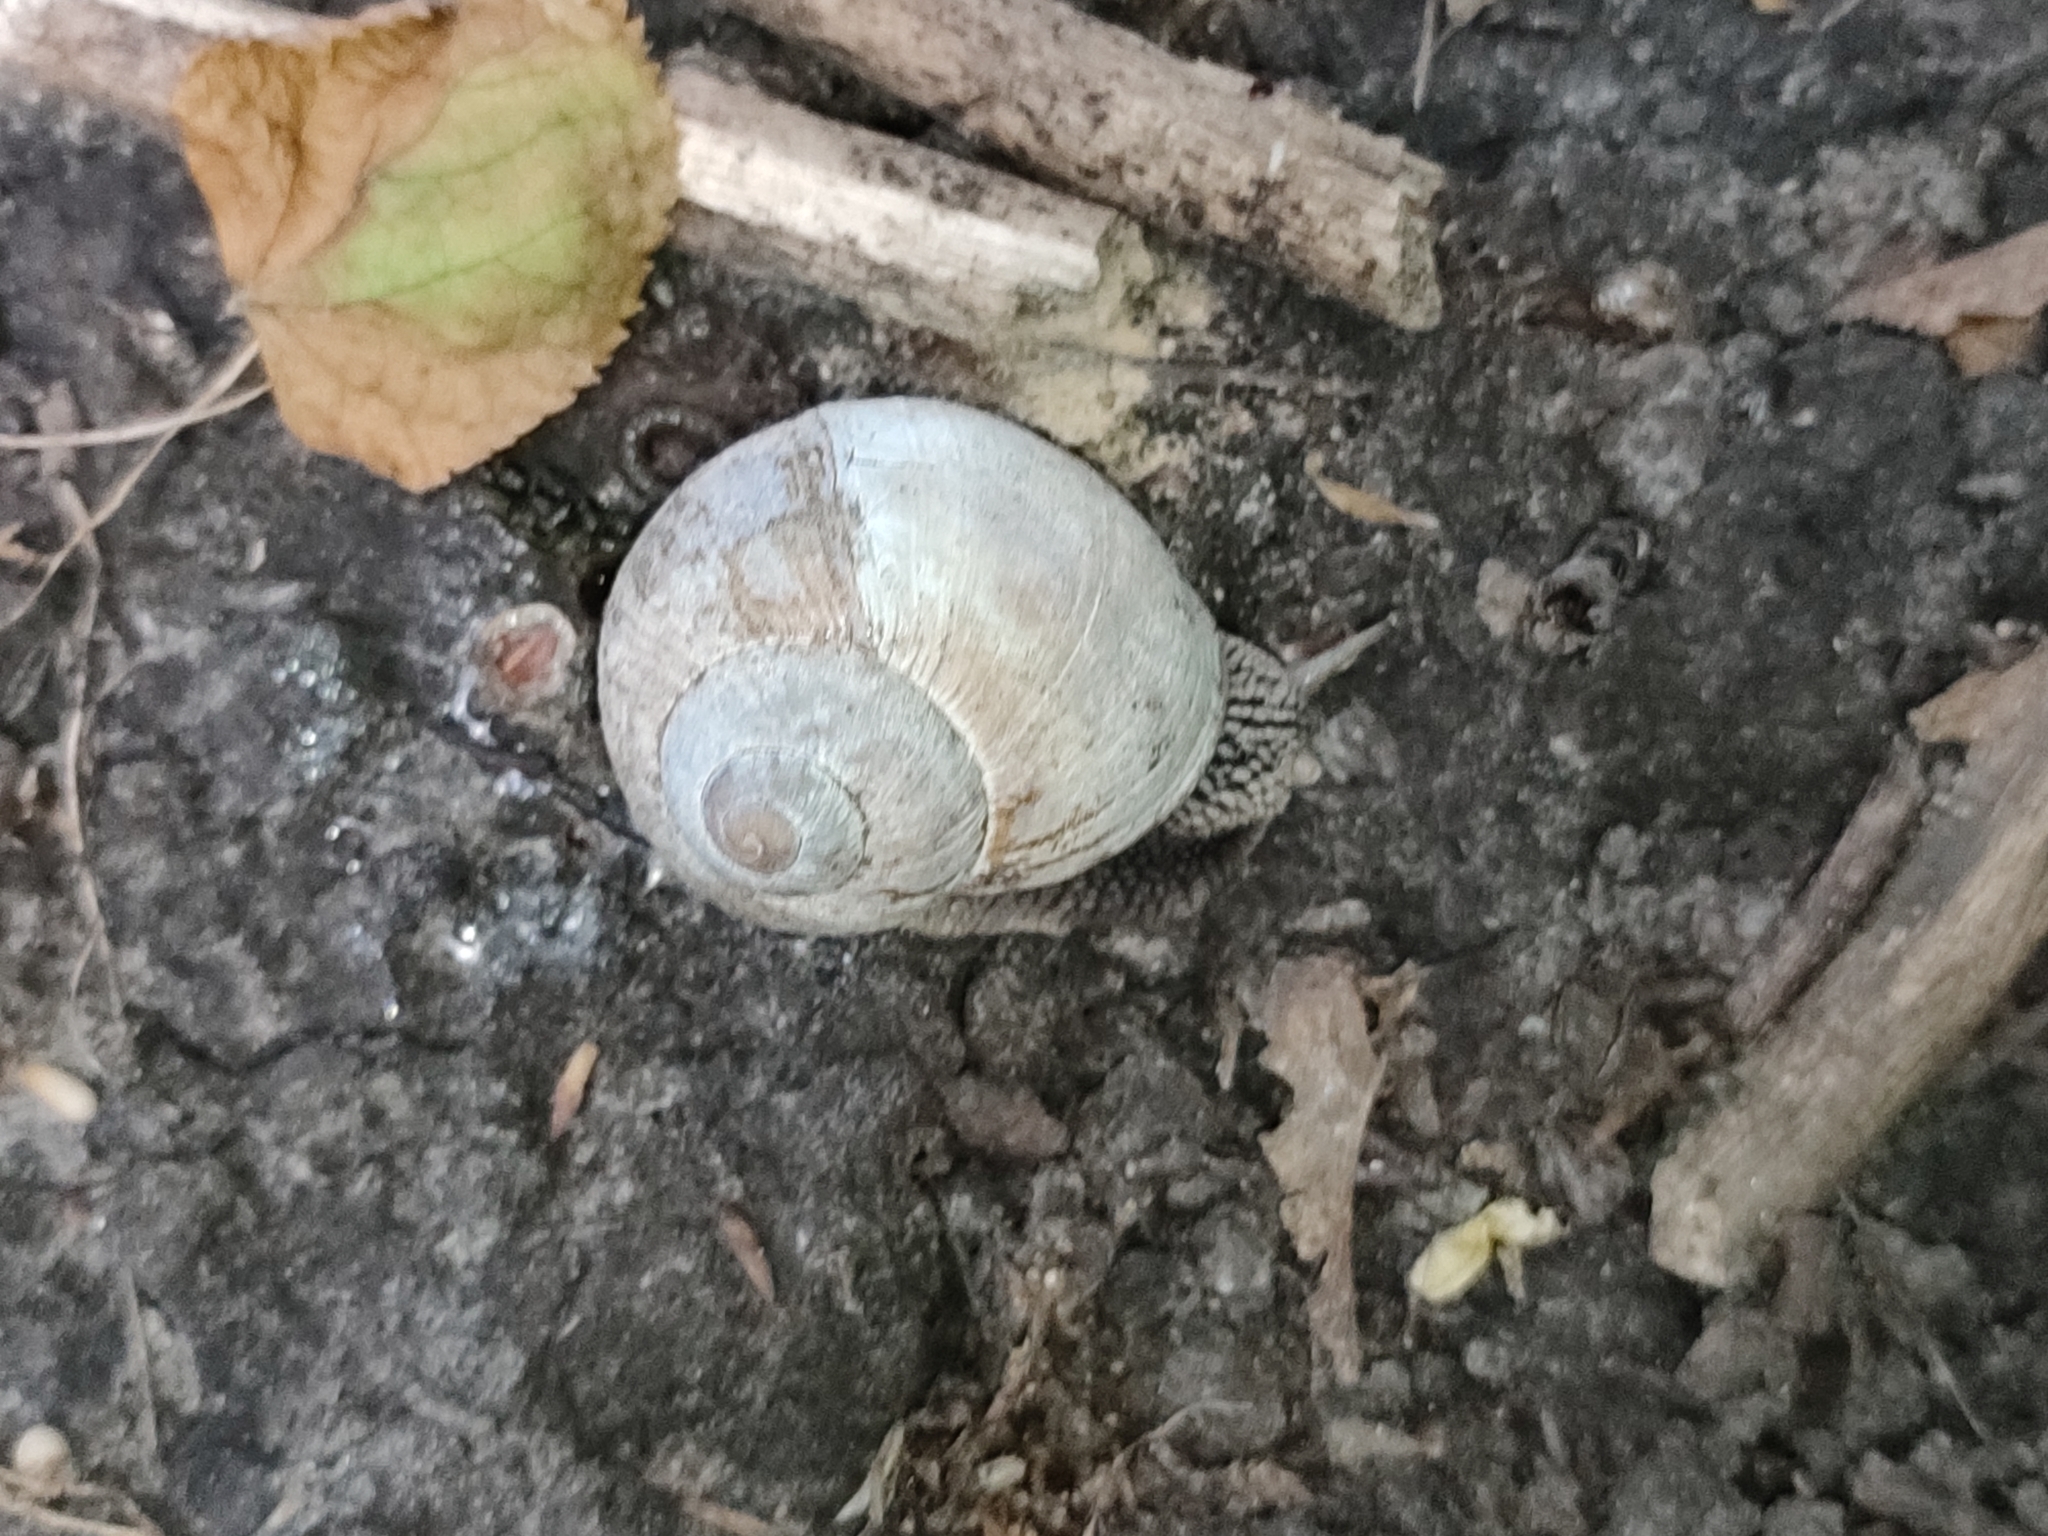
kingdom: Animalia
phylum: Mollusca
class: Gastropoda
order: Stylommatophora
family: Helicidae
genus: Helix
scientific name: Helix pomatia
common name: Roman snail
